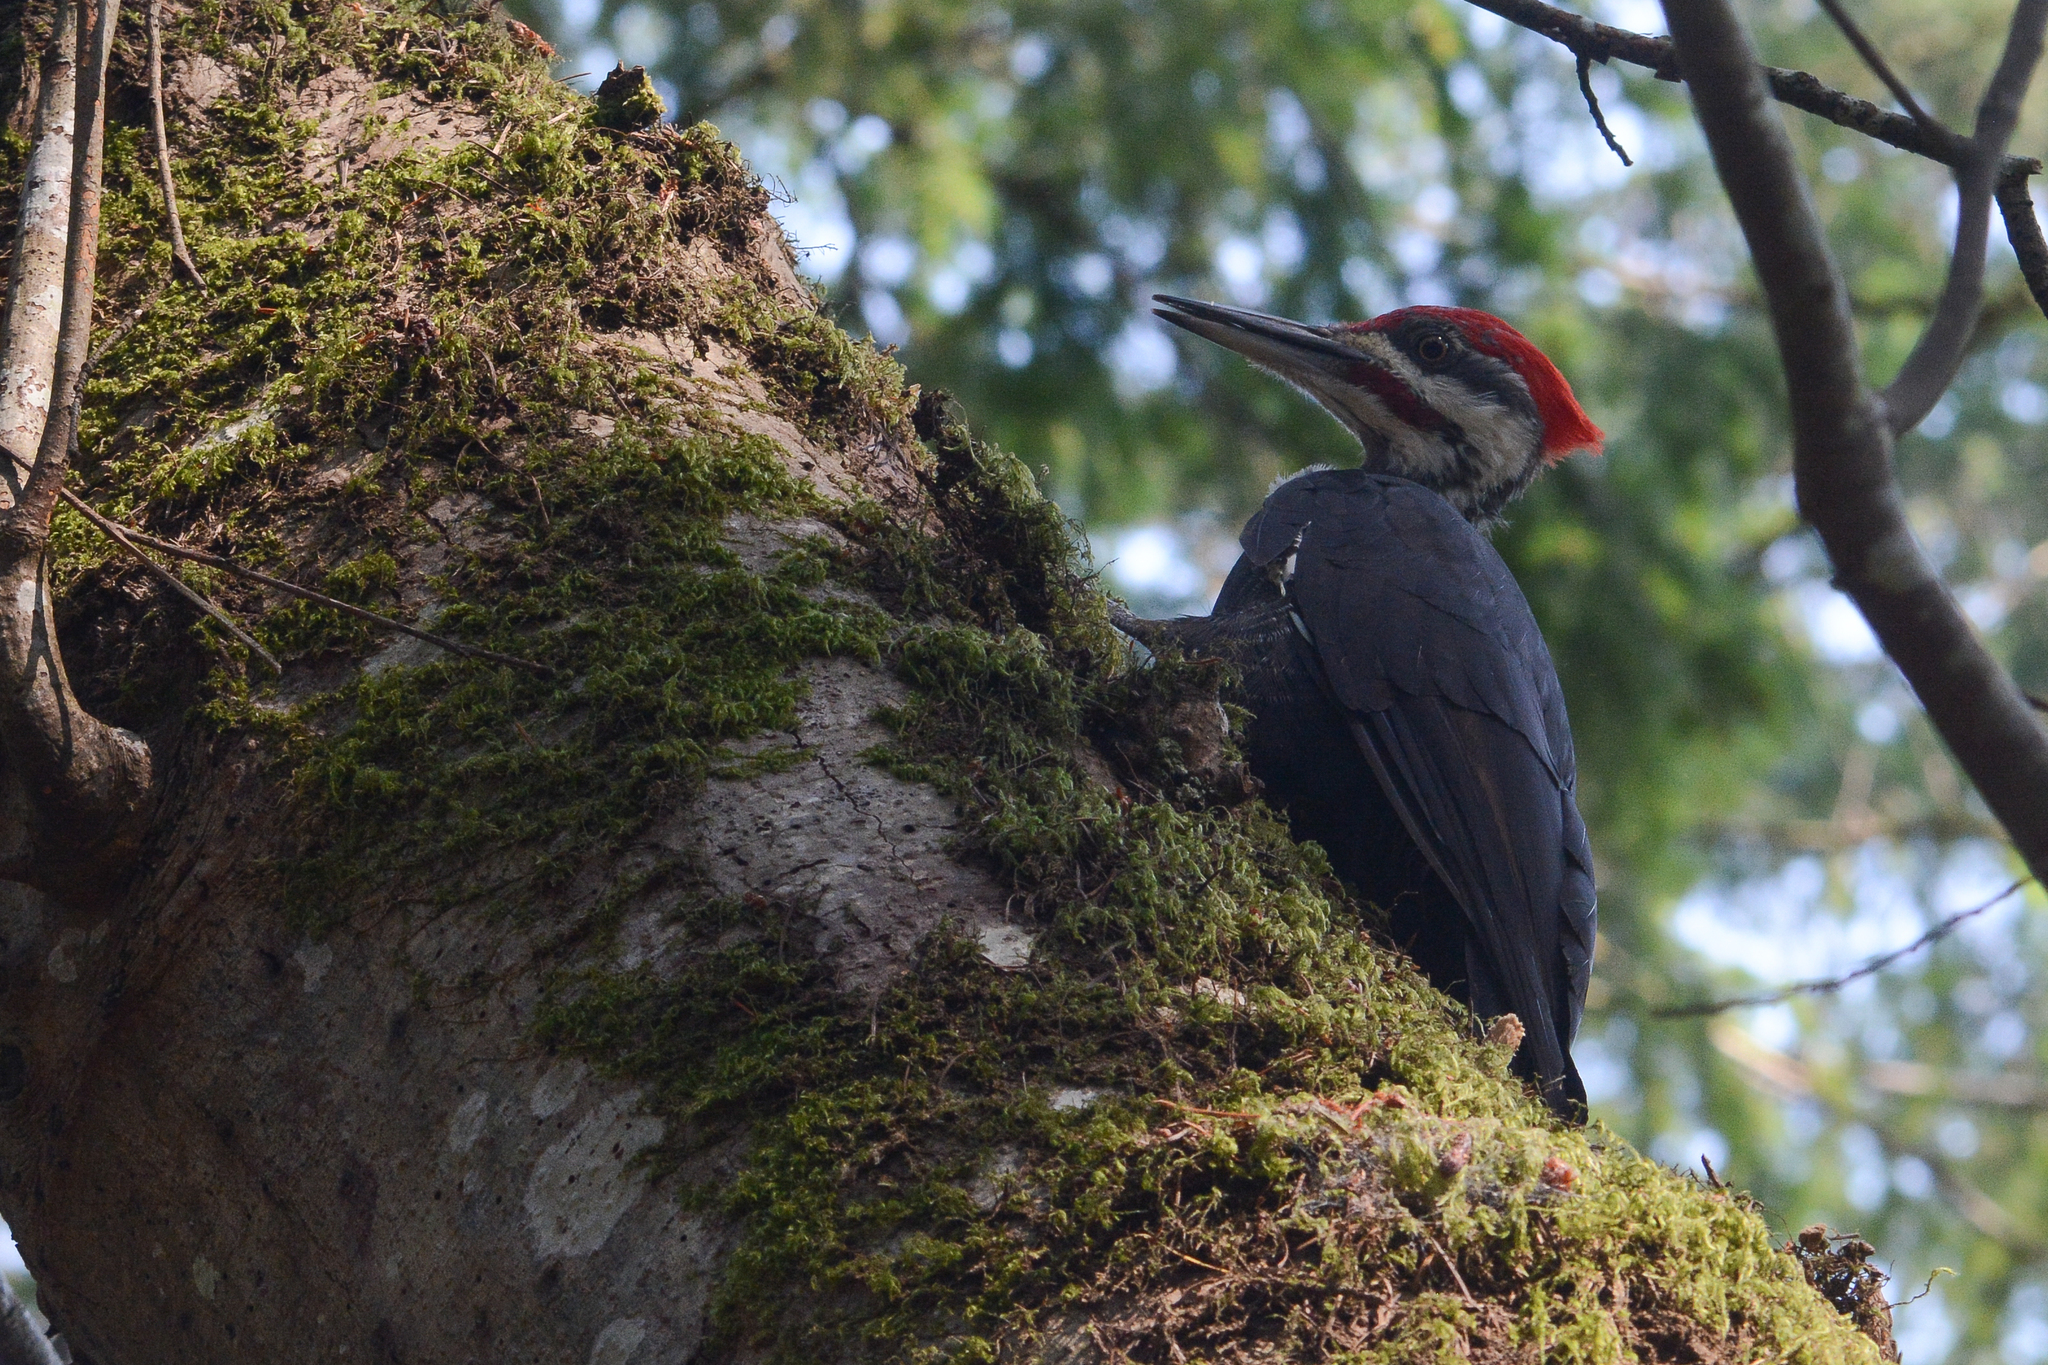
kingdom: Animalia
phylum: Chordata
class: Aves
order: Piciformes
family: Picidae
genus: Dryocopus
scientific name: Dryocopus pileatus
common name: Pileated woodpecker
